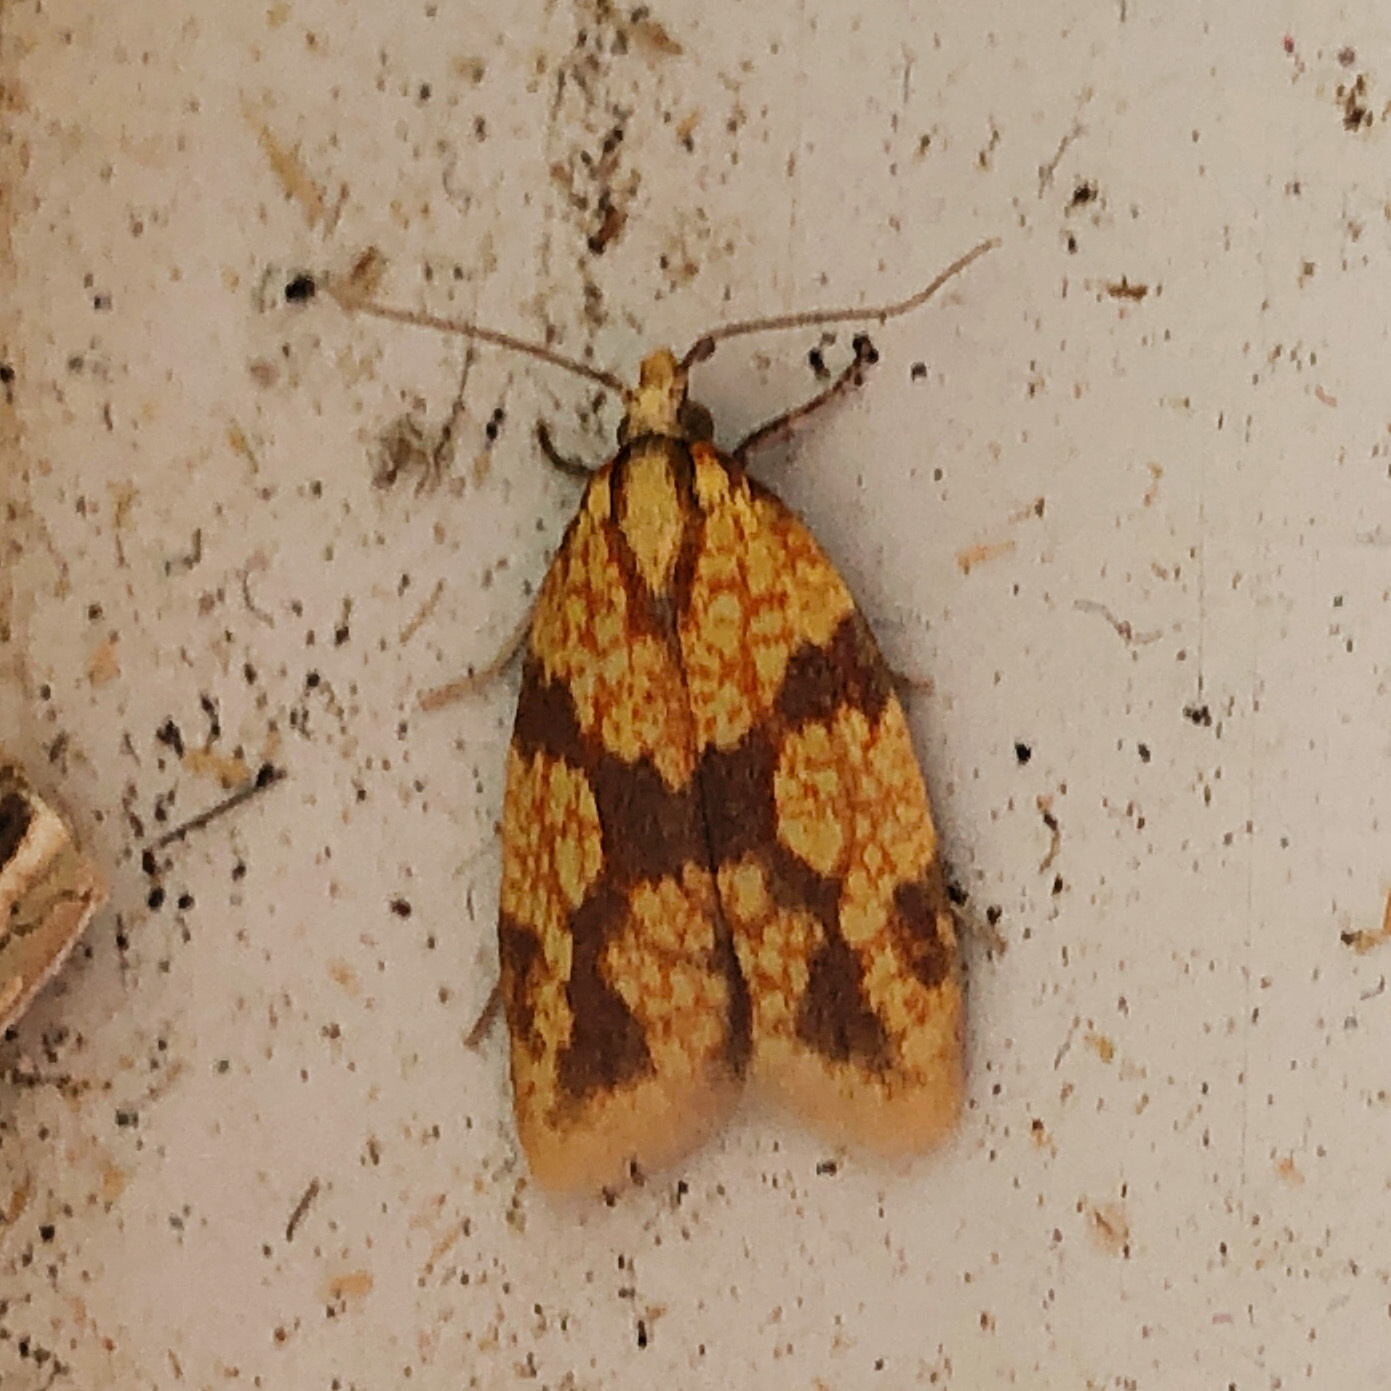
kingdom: Animalia
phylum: Arthropoda
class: Insecta
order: Lepidoptera
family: Tortricidae
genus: Sparganothis
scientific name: Sparganothis sulfureana
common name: Sparganothis fruitworm moth
